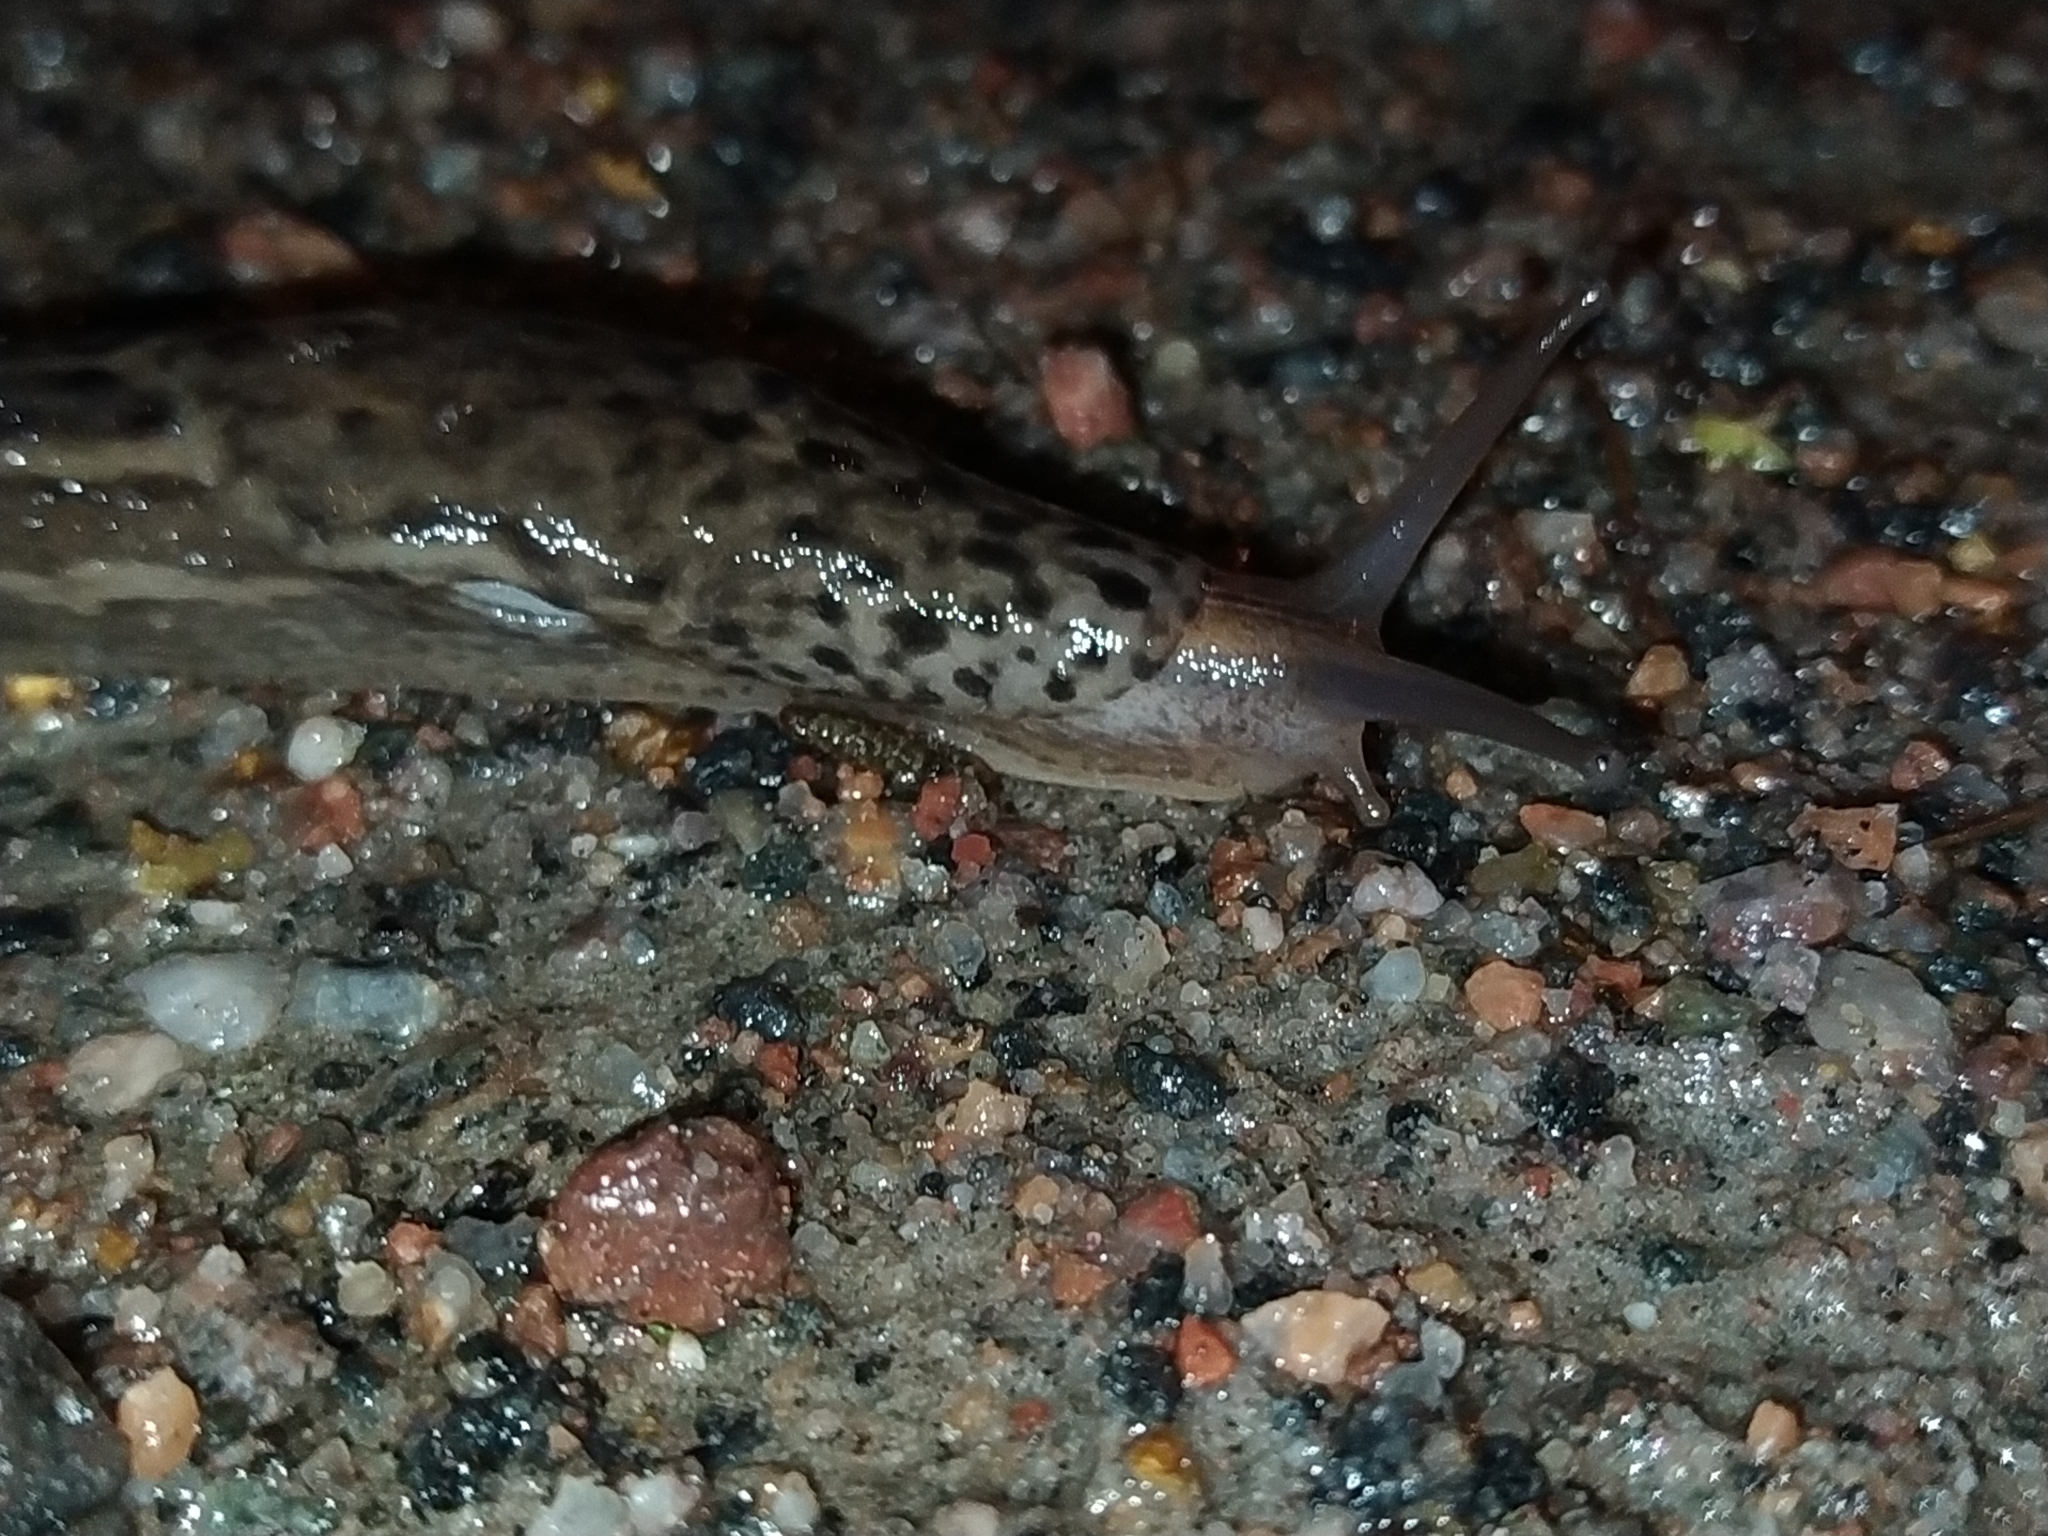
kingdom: Animalia
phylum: Mollusca
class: Gastropoda
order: Stylommatophora
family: Limacidae
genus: Limax
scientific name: Limax maximus
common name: Great grey slug
